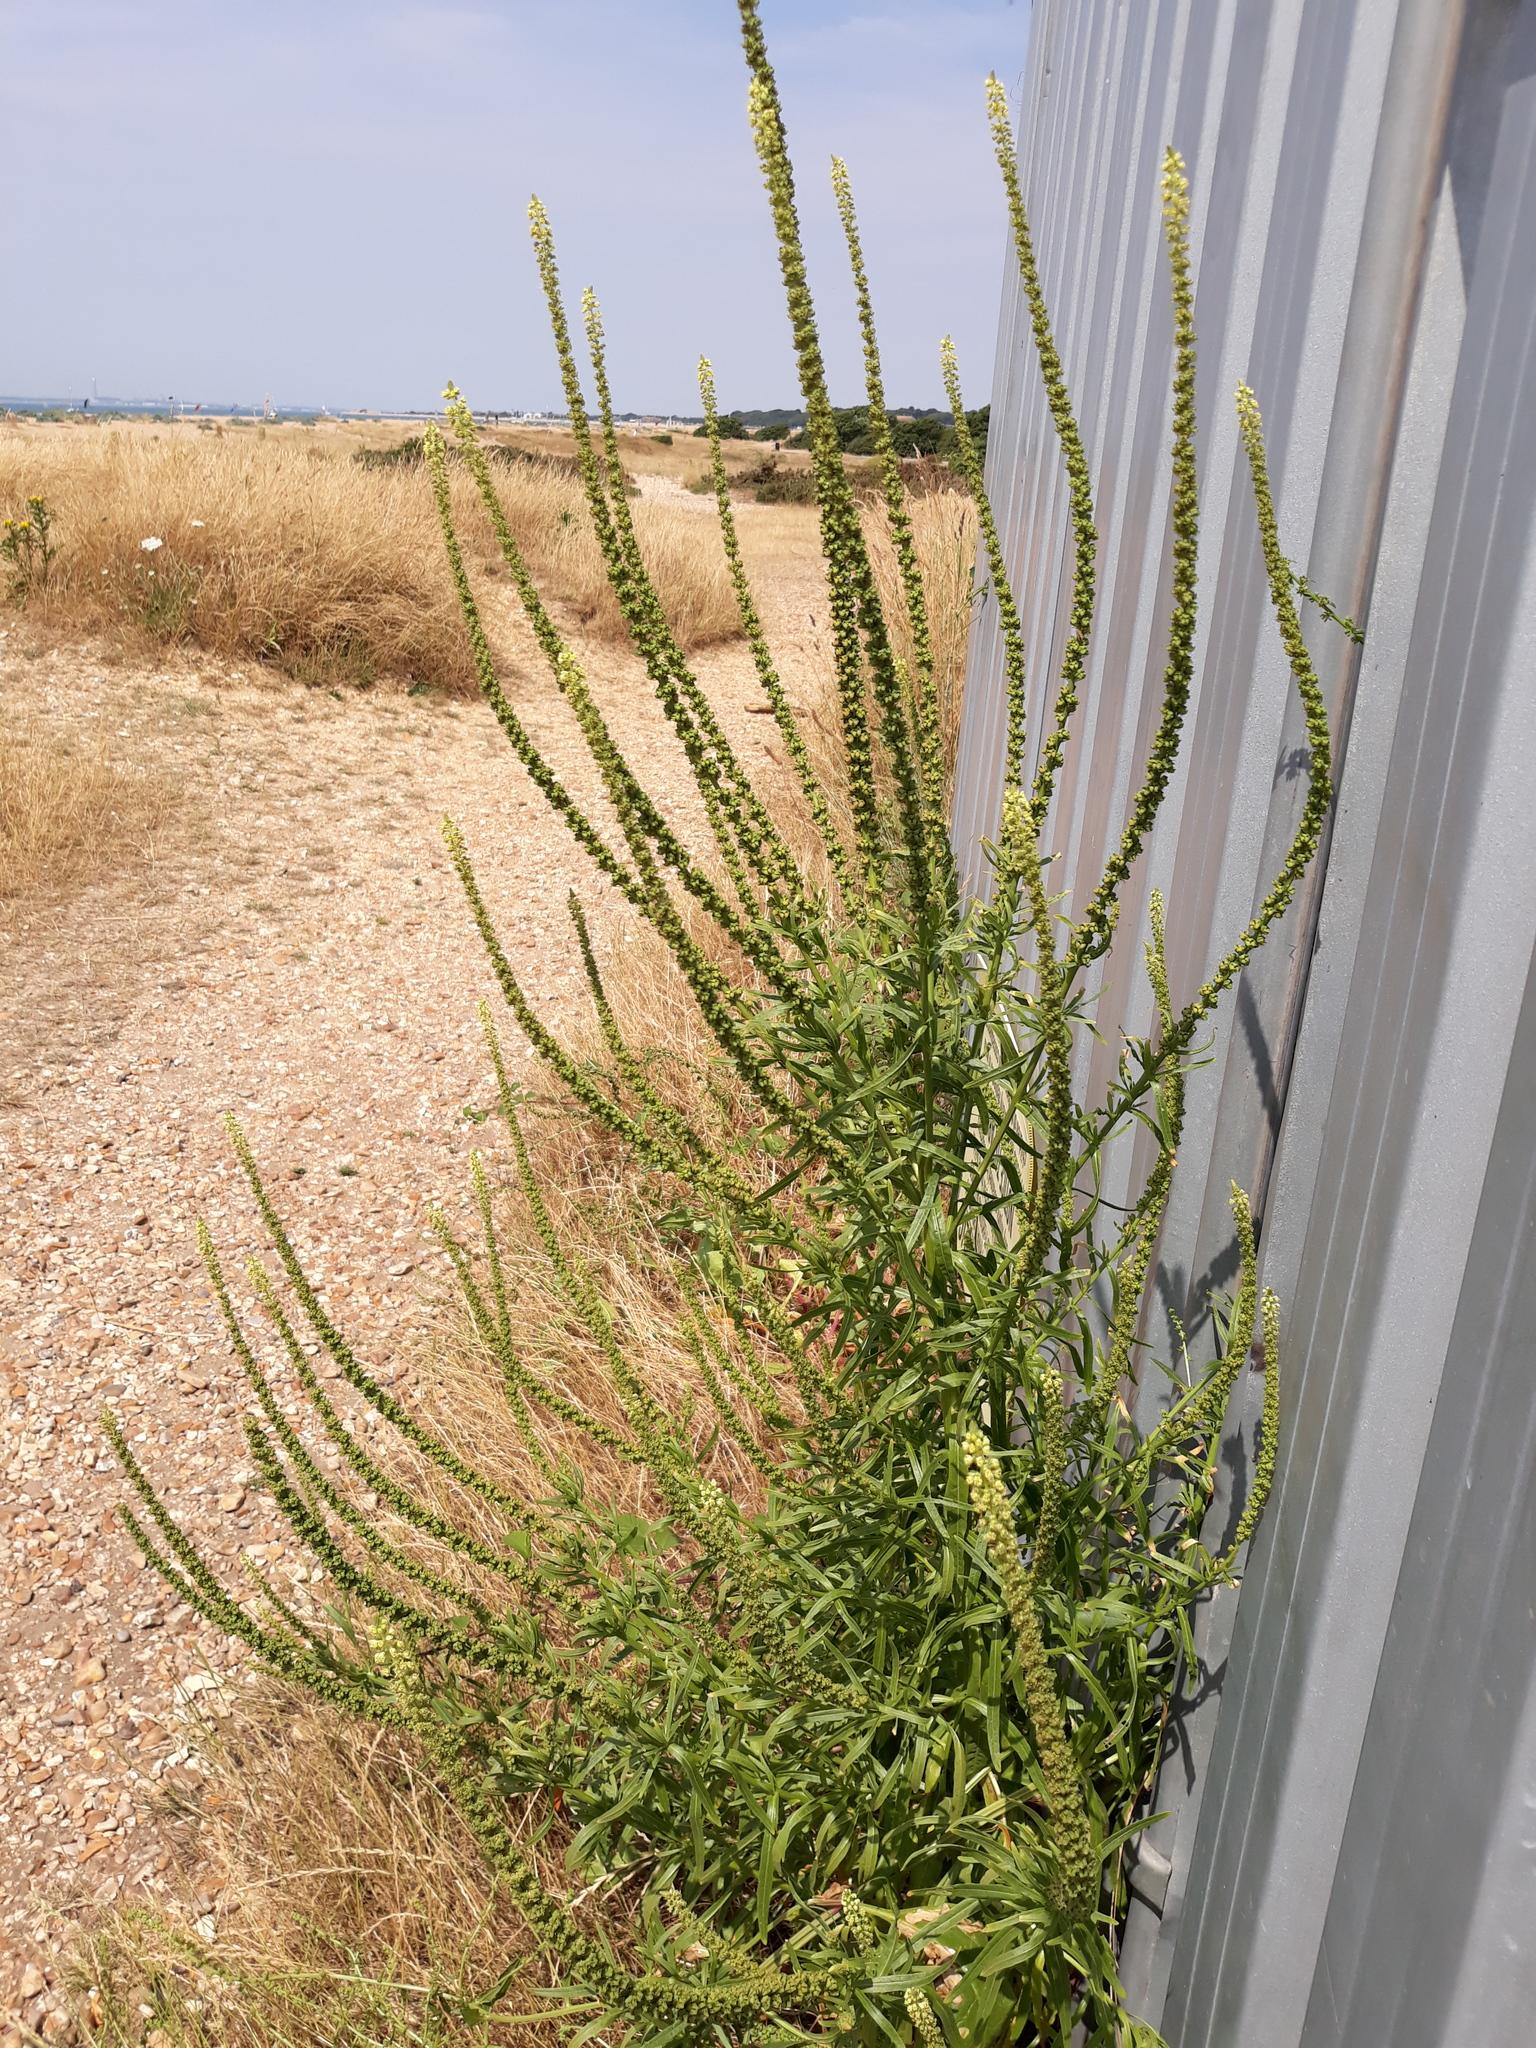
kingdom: Plantae
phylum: Tracheophyta
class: Magnoliopsida
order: Brassicales
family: Resedaceae
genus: Reseda
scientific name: Reseda luteola
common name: Weld
